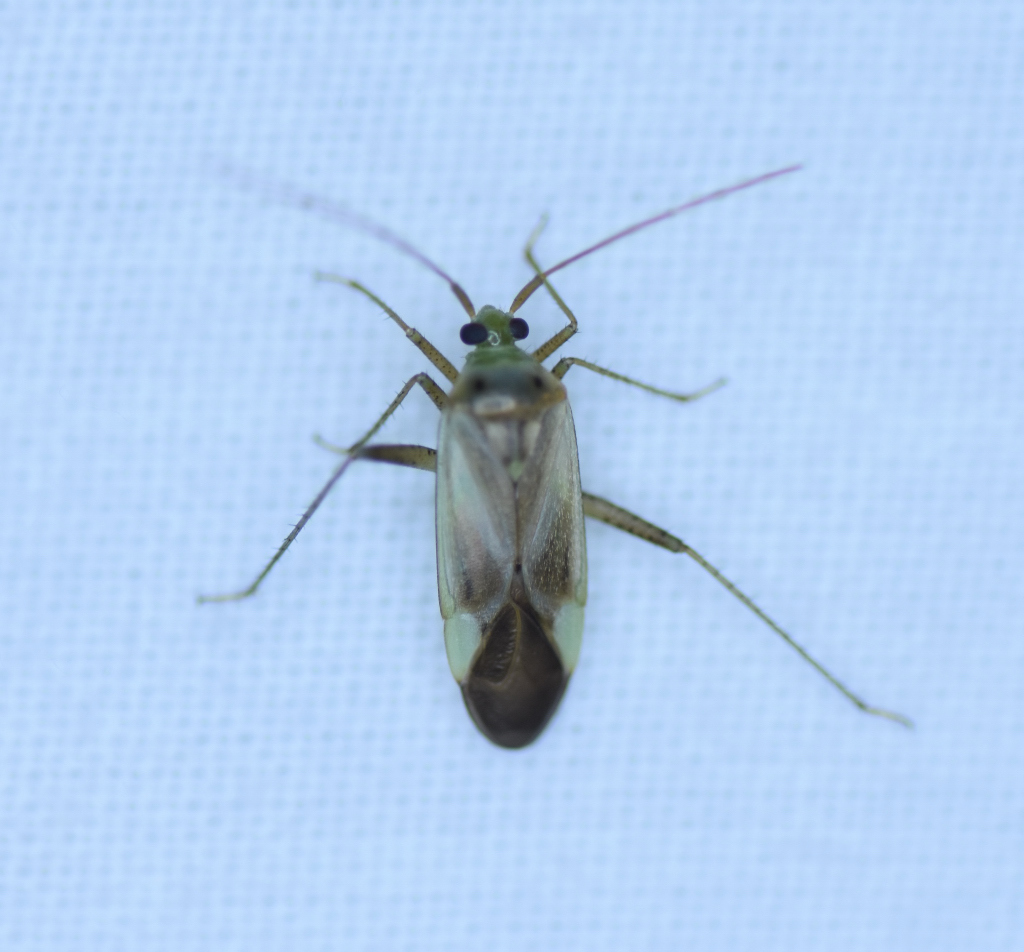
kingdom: Animalia
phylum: Arthropoda
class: Insecta
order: Hemiptera
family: Miridae
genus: Adelphocoris
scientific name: Adelphocoris lineolatus
